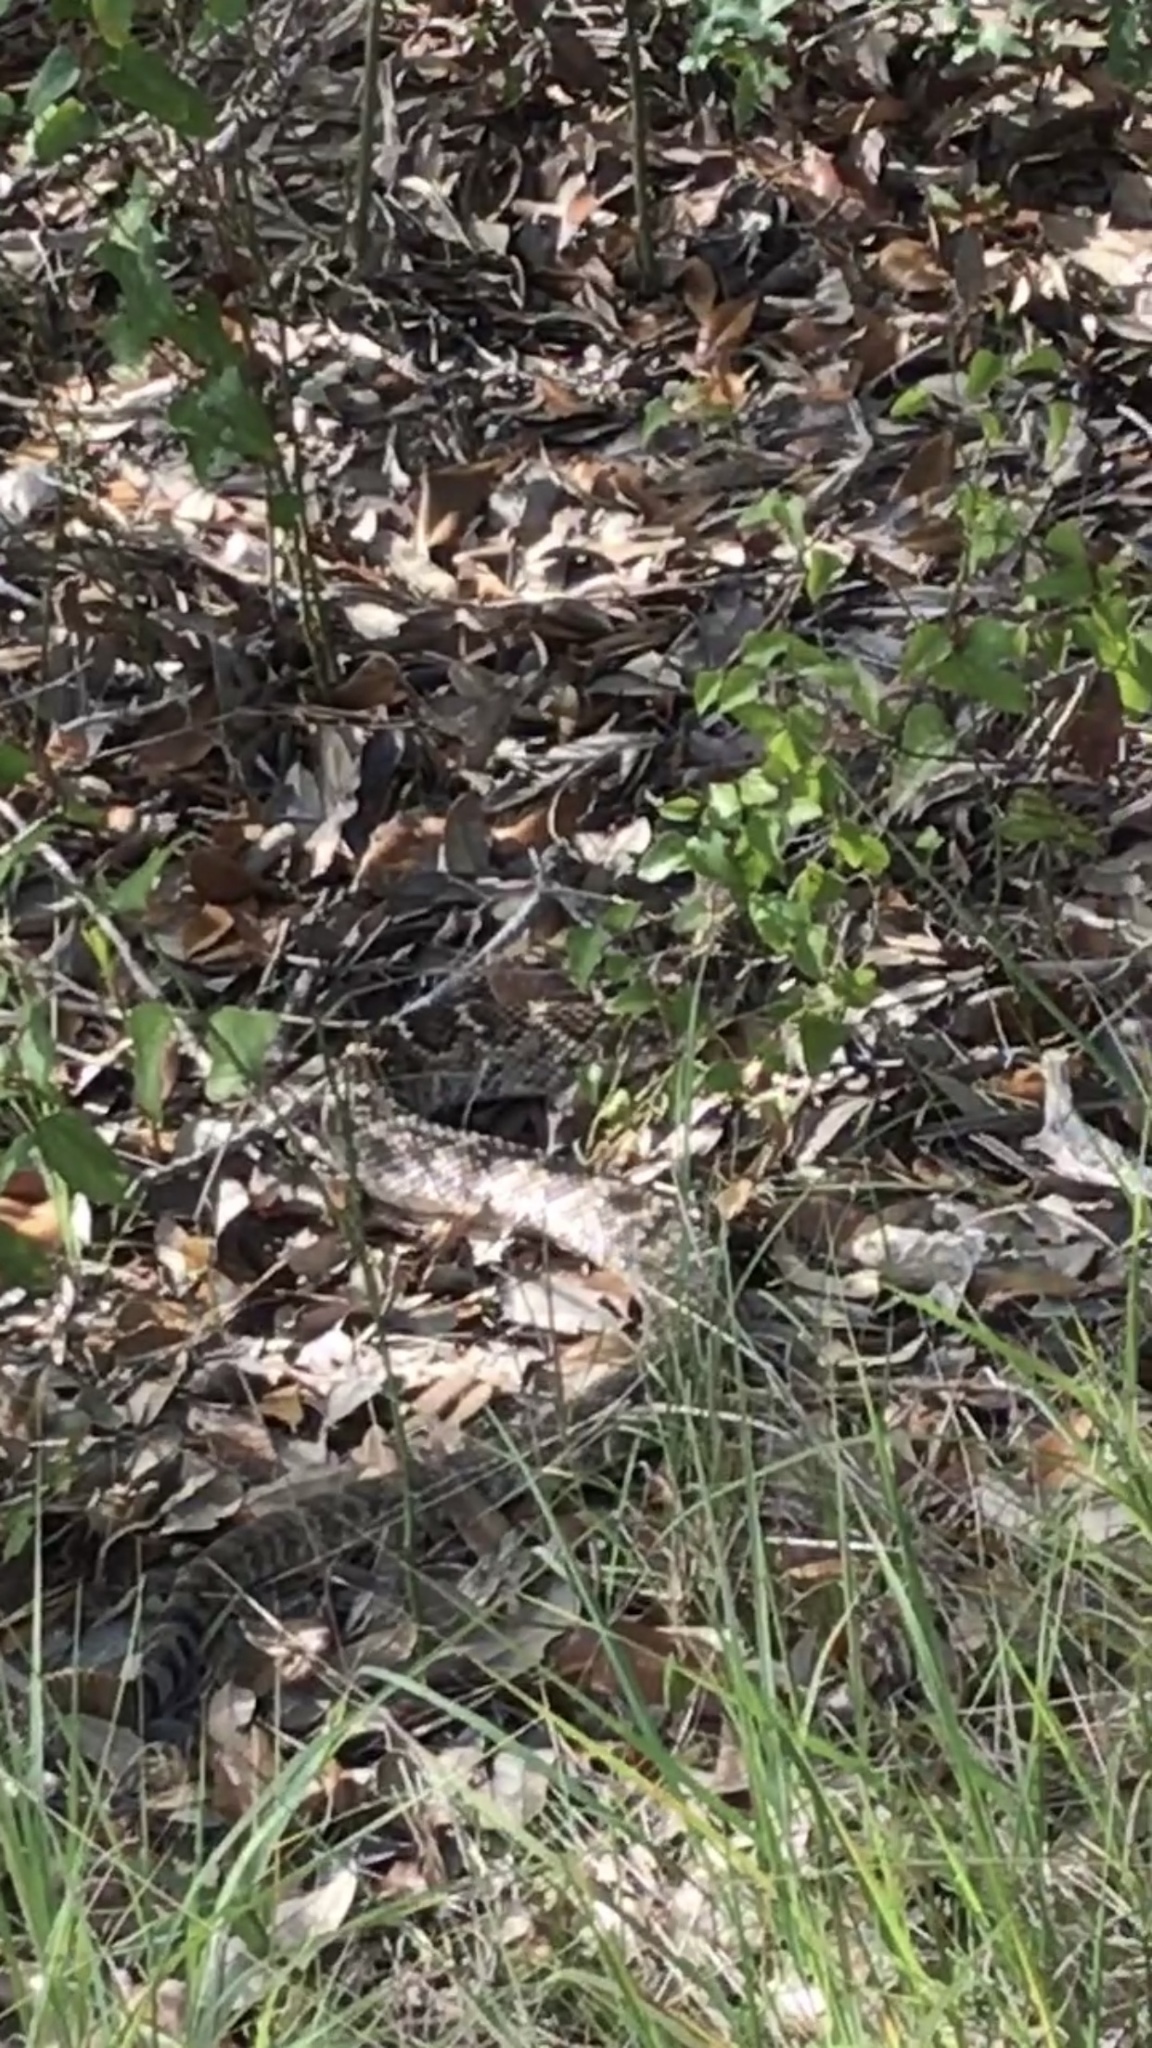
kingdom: Animalia
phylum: Chordata
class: Squamata
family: Viperidae
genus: Crotalus
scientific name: Crotalus atrox
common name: Western diamond-backed rattlesnake
